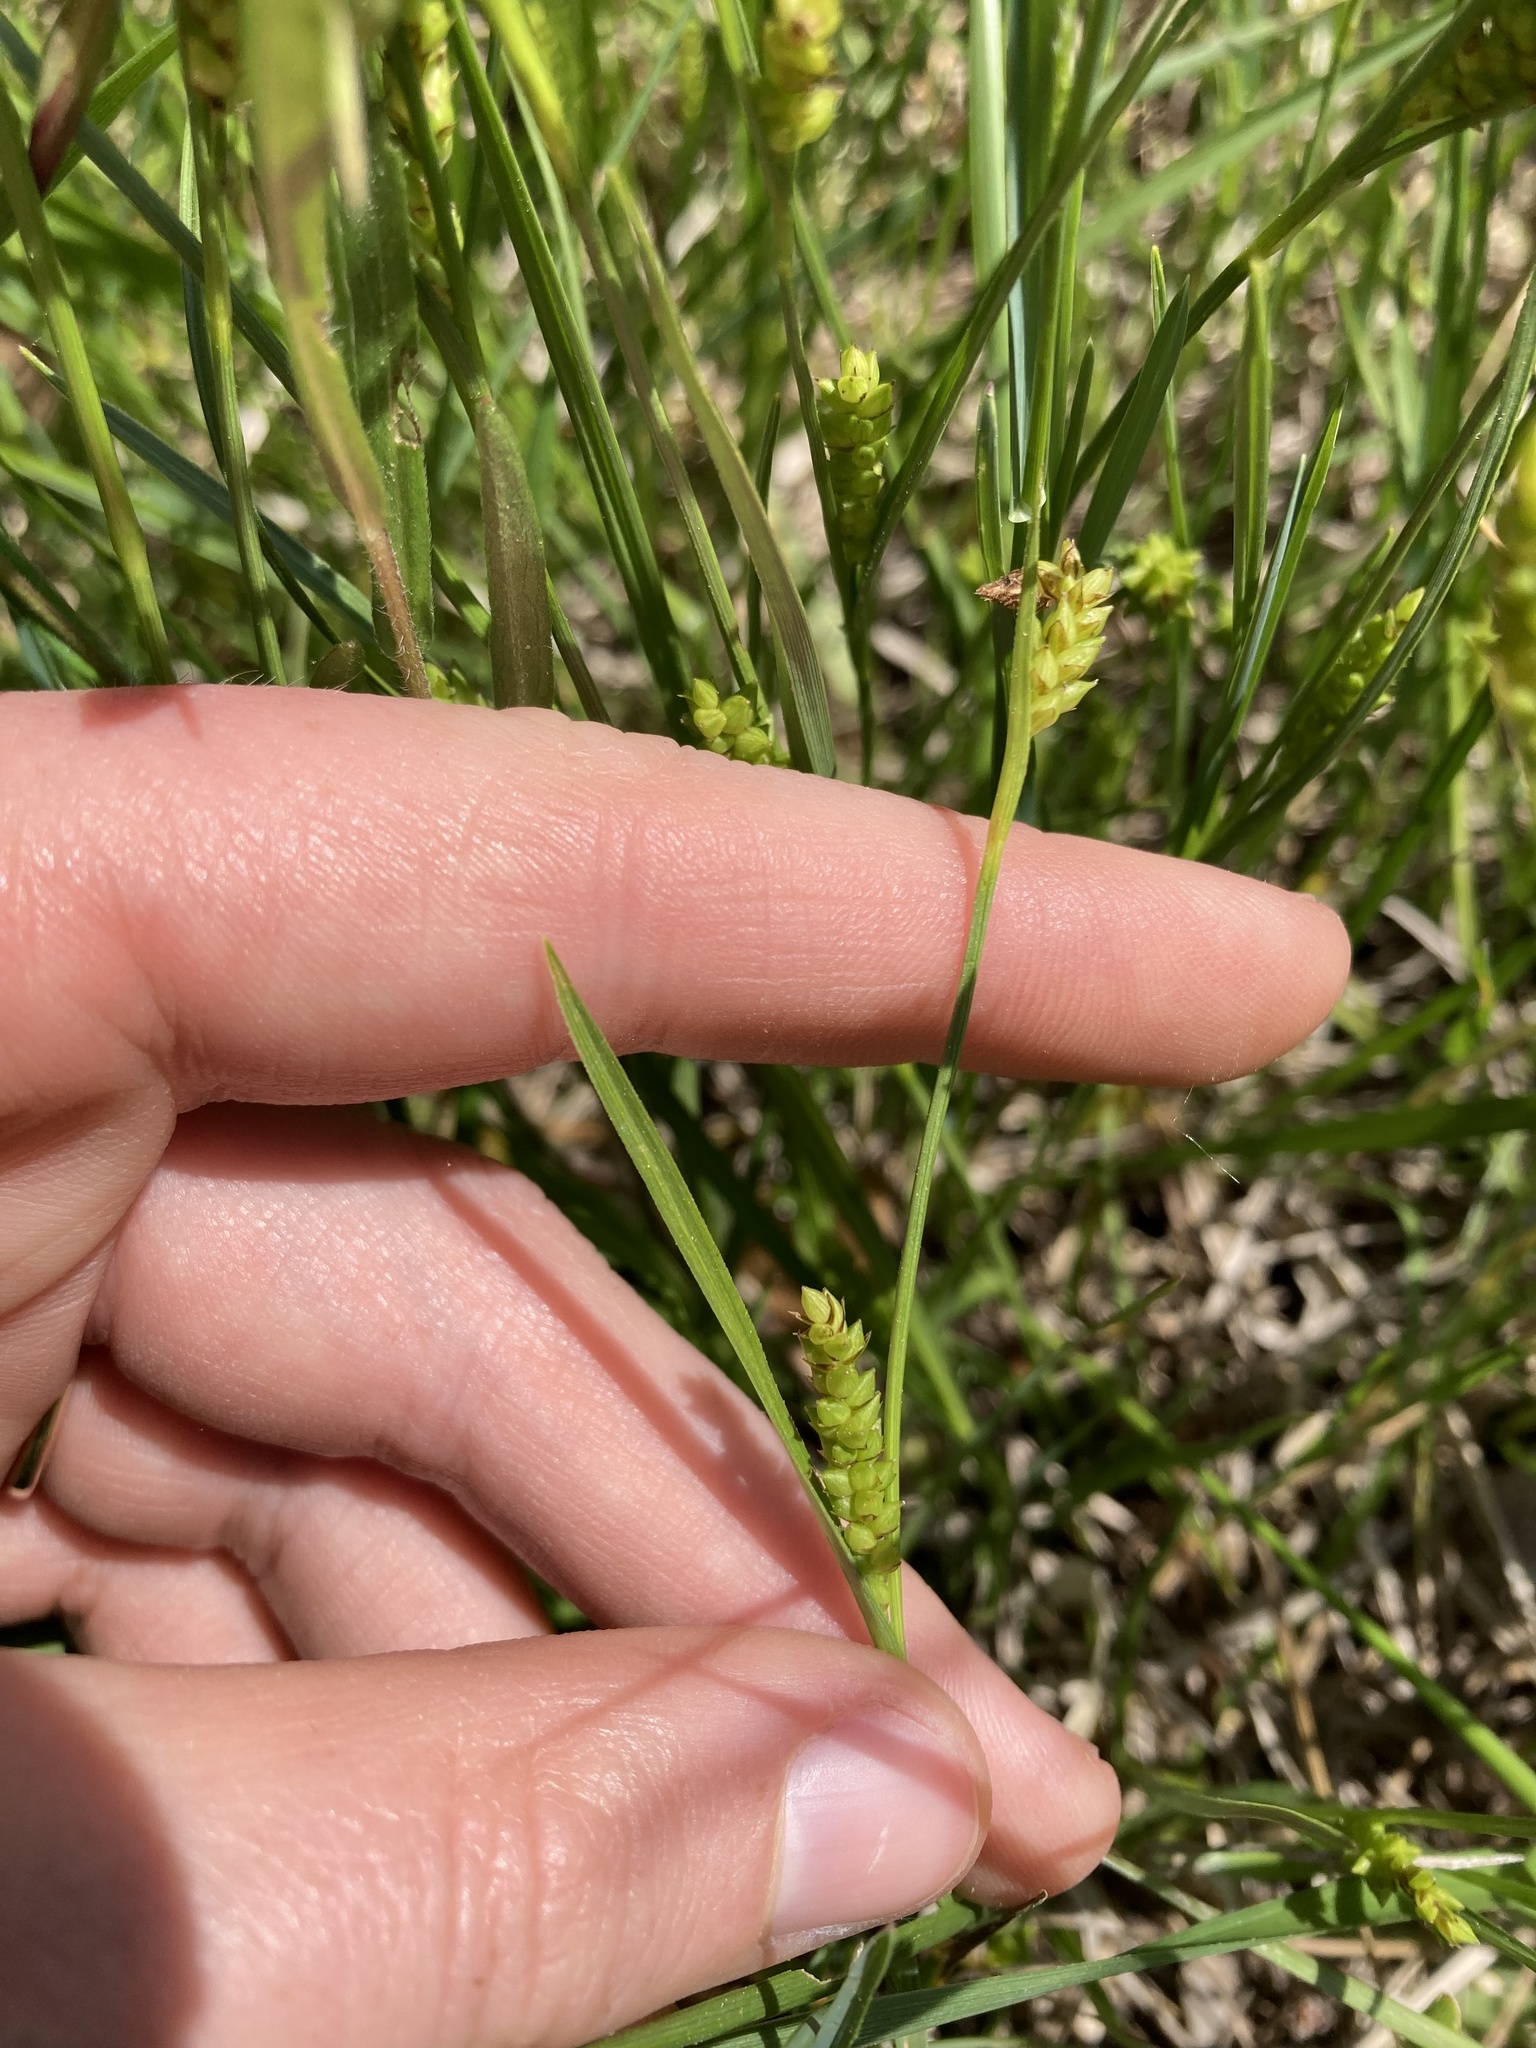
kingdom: Plantae
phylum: Tracheophyta
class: Liliopsida
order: Poales
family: Cyperaceae
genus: Carex
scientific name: Carex crawei
